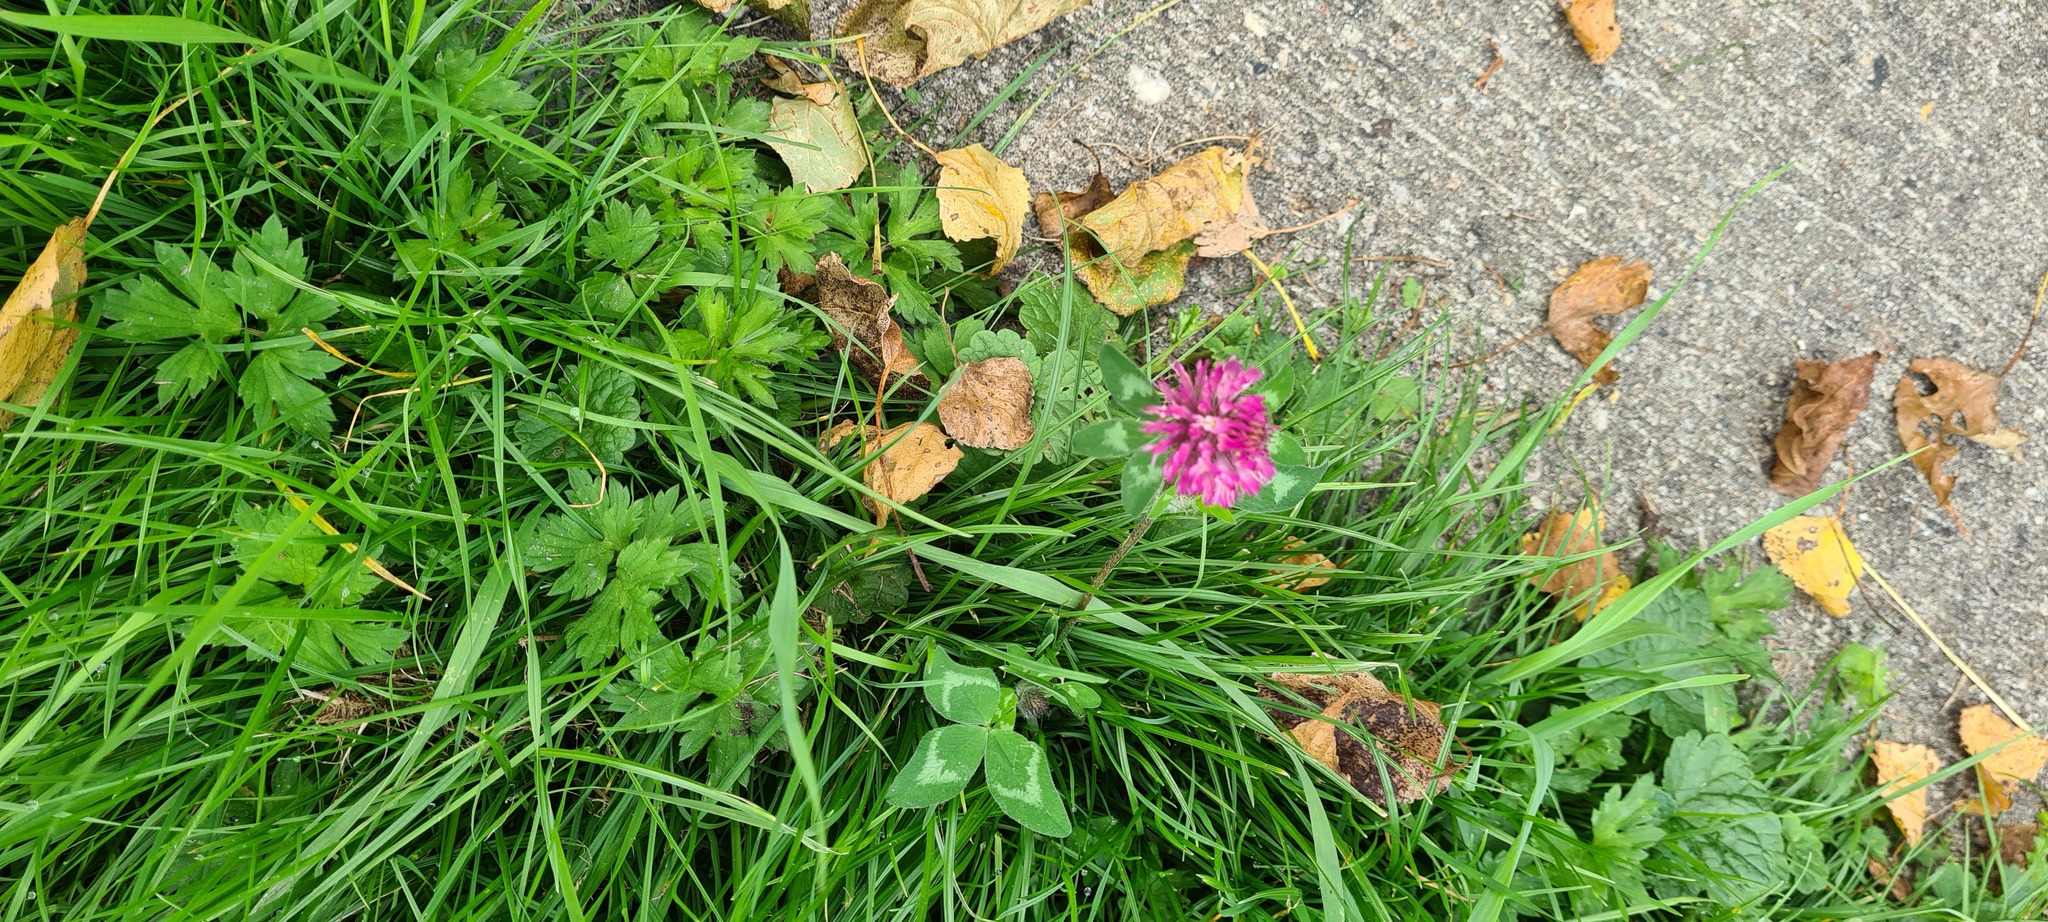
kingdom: Plantae
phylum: Tracheophyta
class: Magnoliopsida
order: Fabales
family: Fabaceae
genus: Trifolium
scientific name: Trifolium pratense
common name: Red clover
